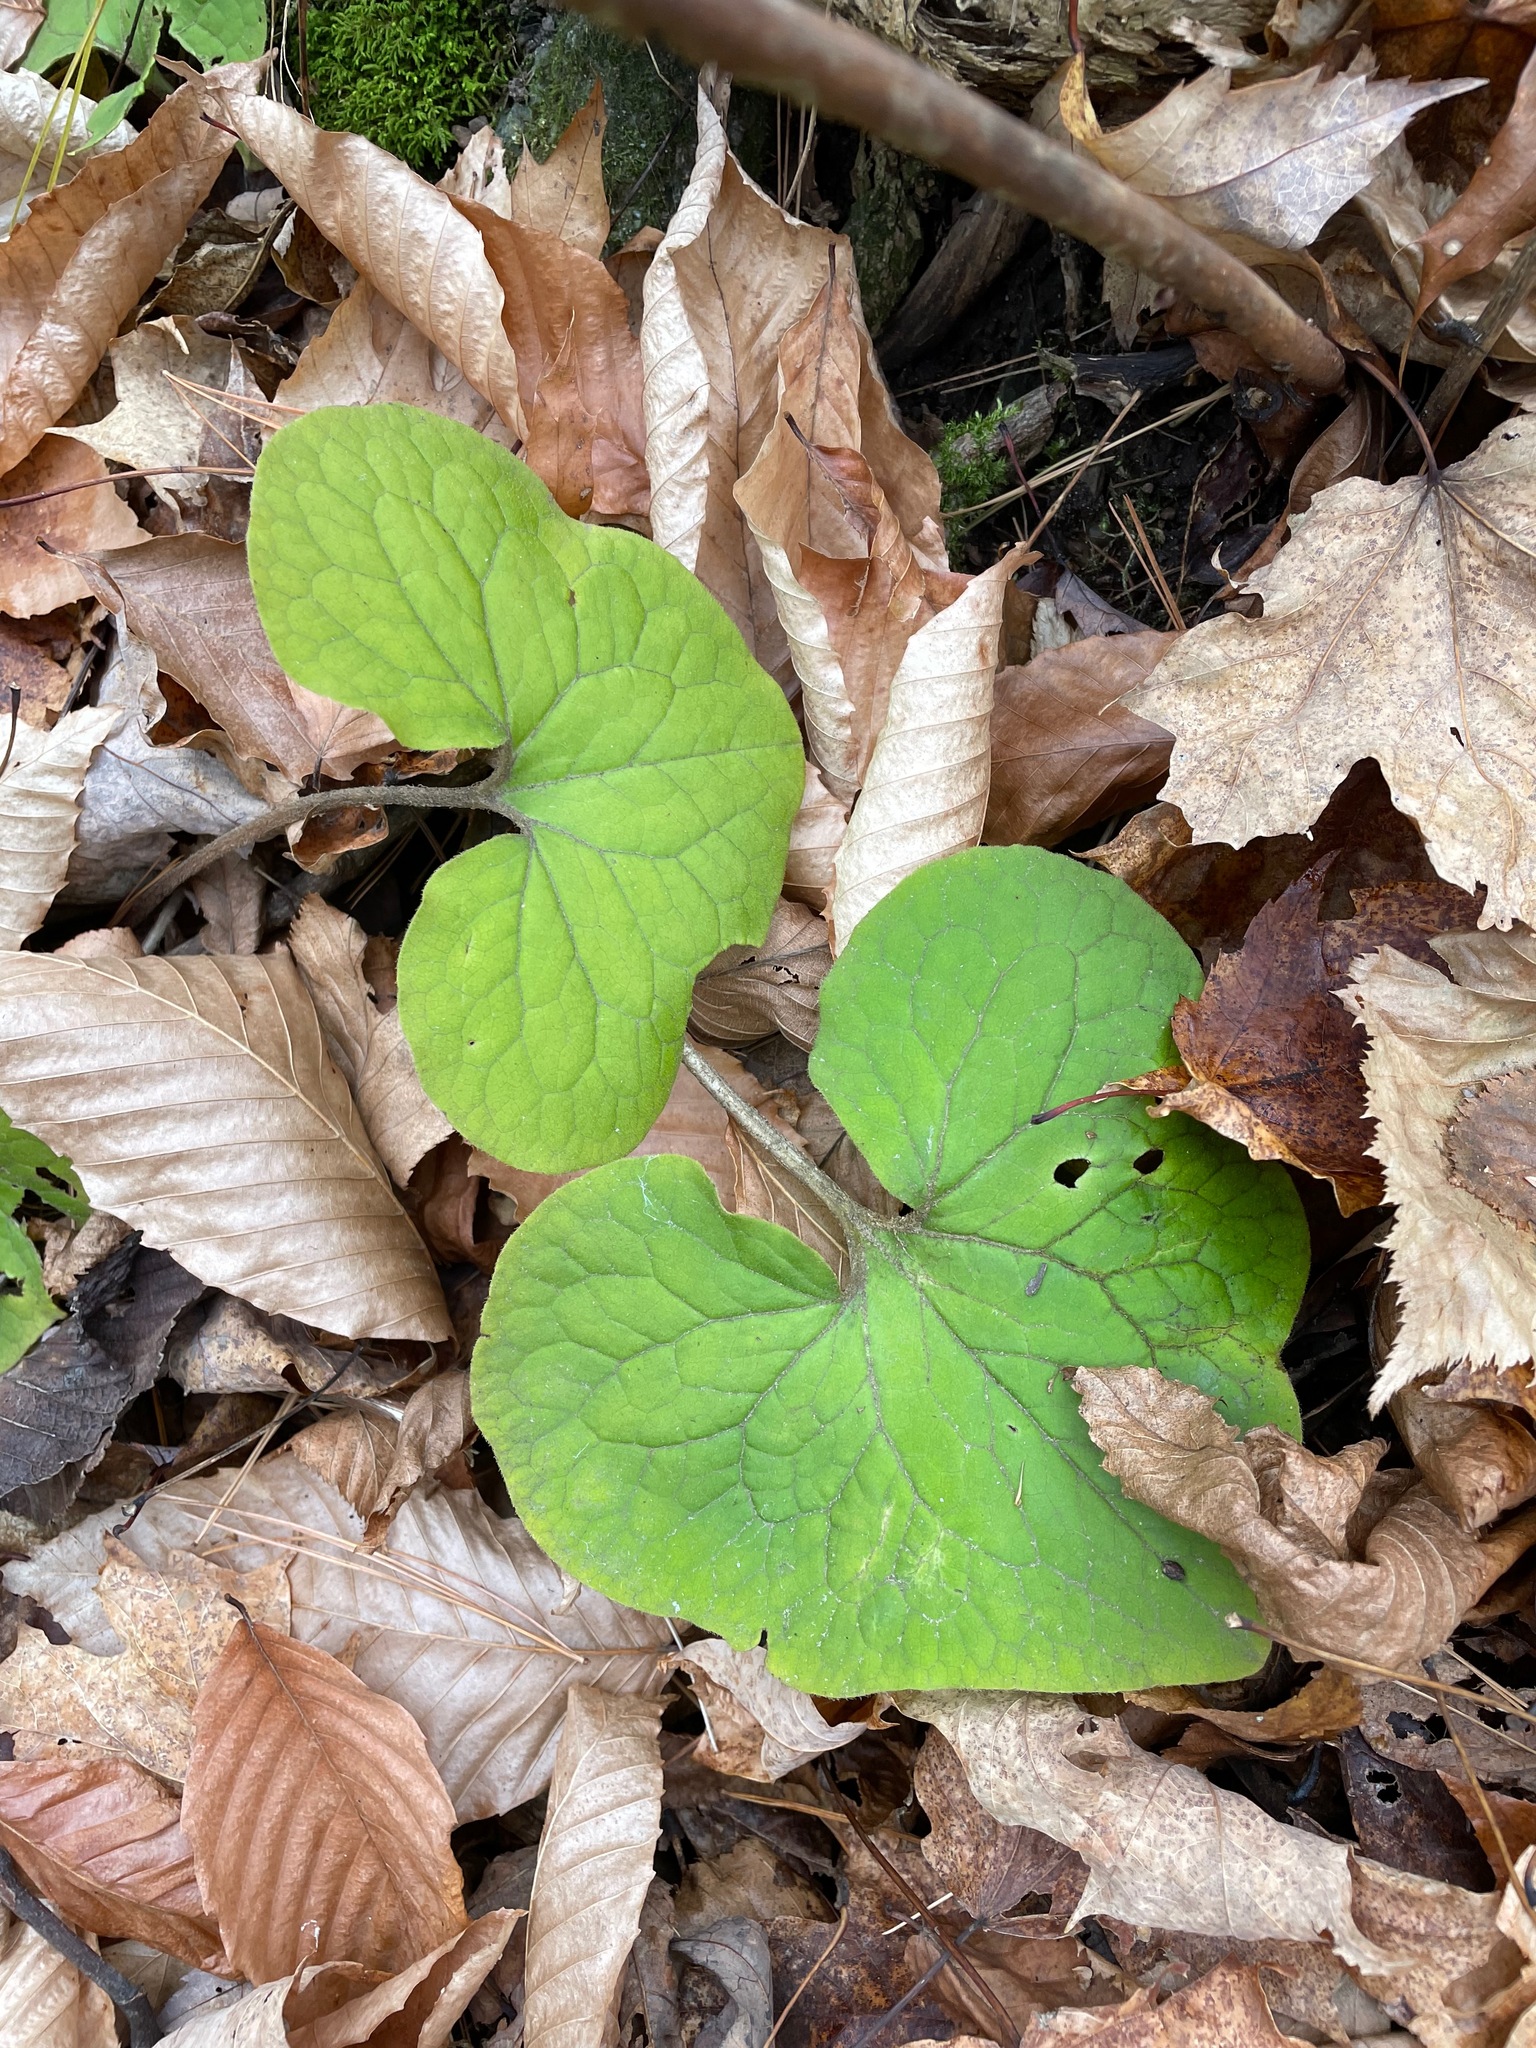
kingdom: Plantae
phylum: Tracheophyta
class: Magnoliopsida
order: Piperales
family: Aristolochiaceae
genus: Asarum
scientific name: Asarum canadense
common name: Wild ginger
